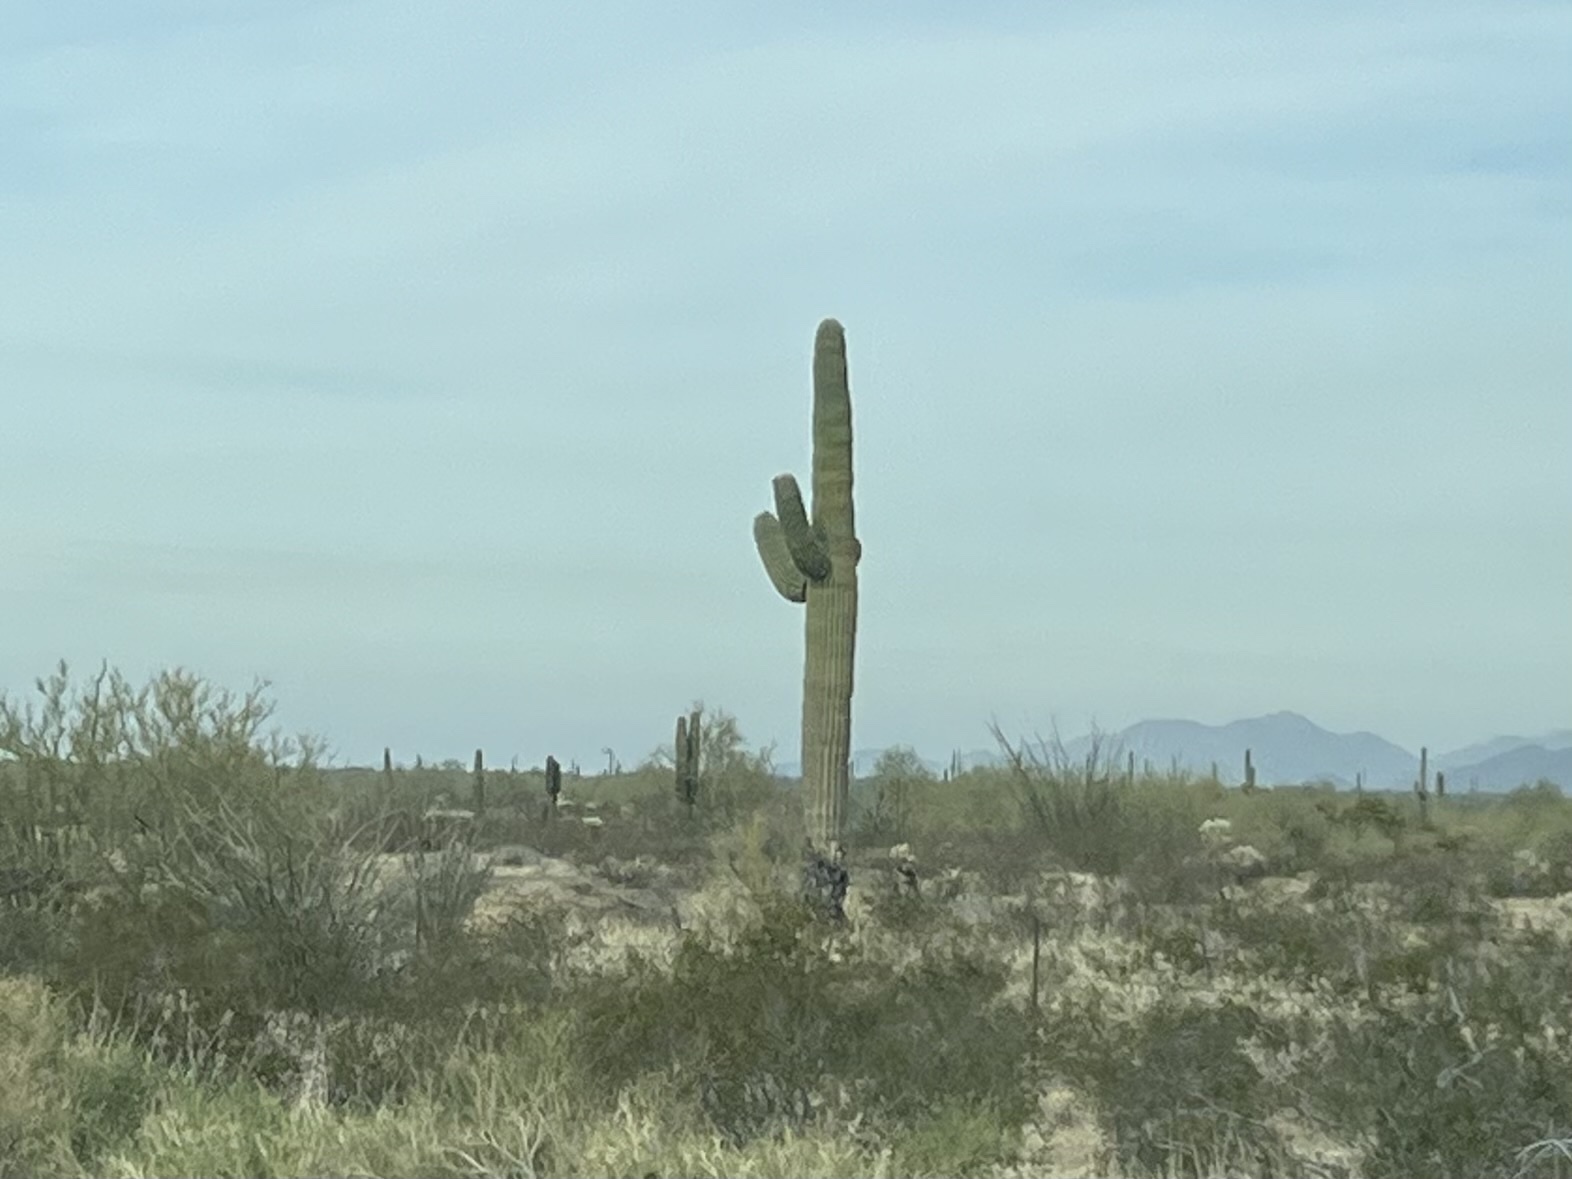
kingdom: Plantae
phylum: Tracheophyta
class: Magnoliopsida
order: Caryophyllales
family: Cactaceae
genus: Carnegiea
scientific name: Carnegiea gigantea
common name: Saguaro
